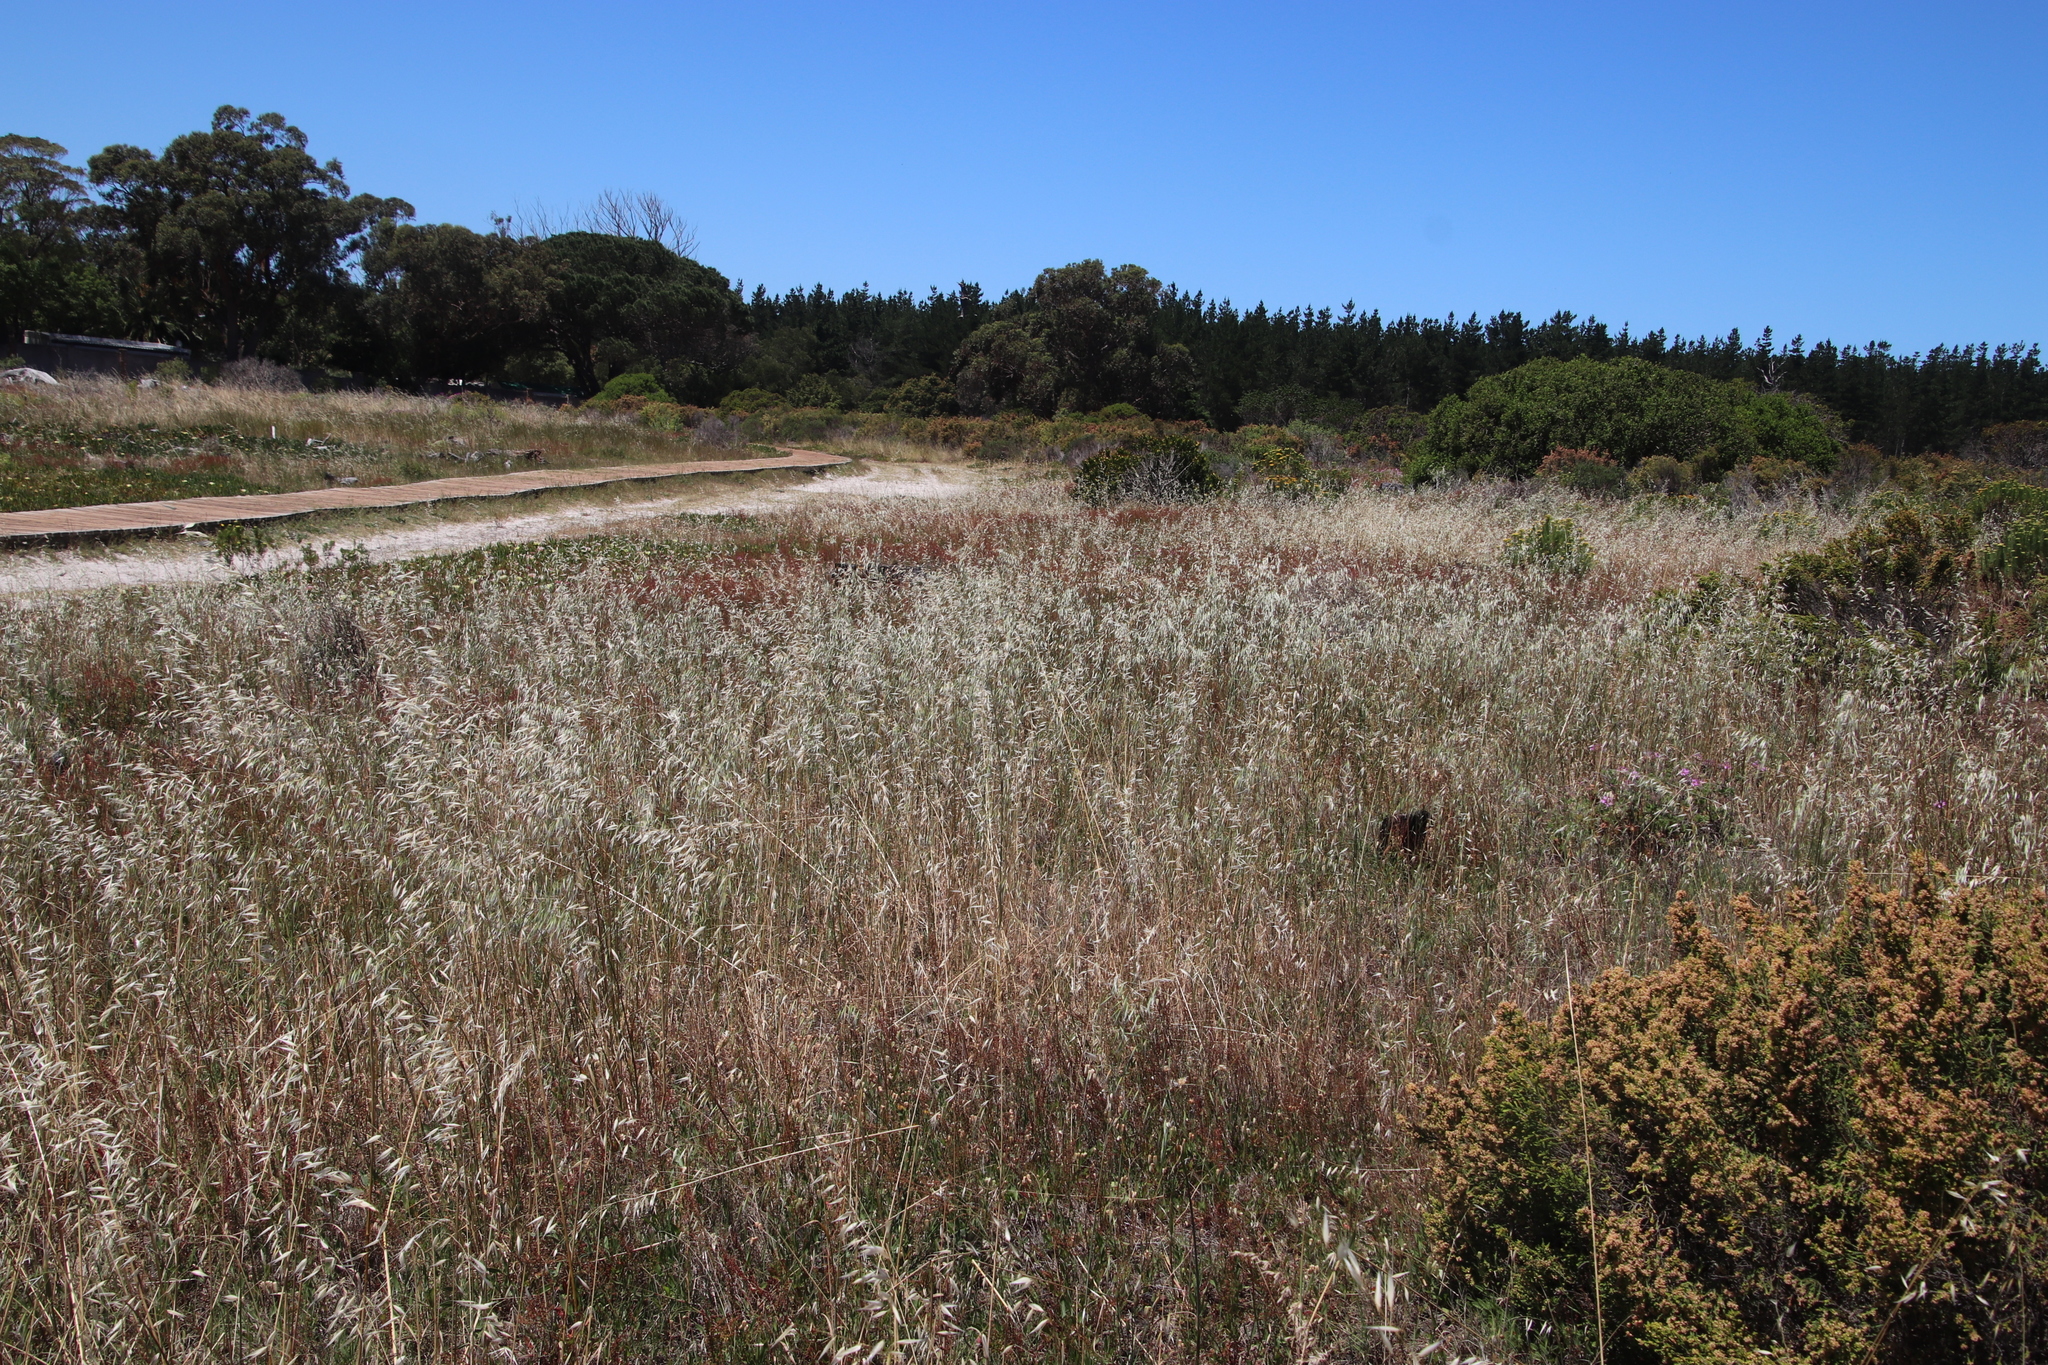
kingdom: Plantae
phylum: Tracheophyta
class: Liliopsida
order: Poales
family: Poaceae
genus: Avena
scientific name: Avena fatua
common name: Wild oat
